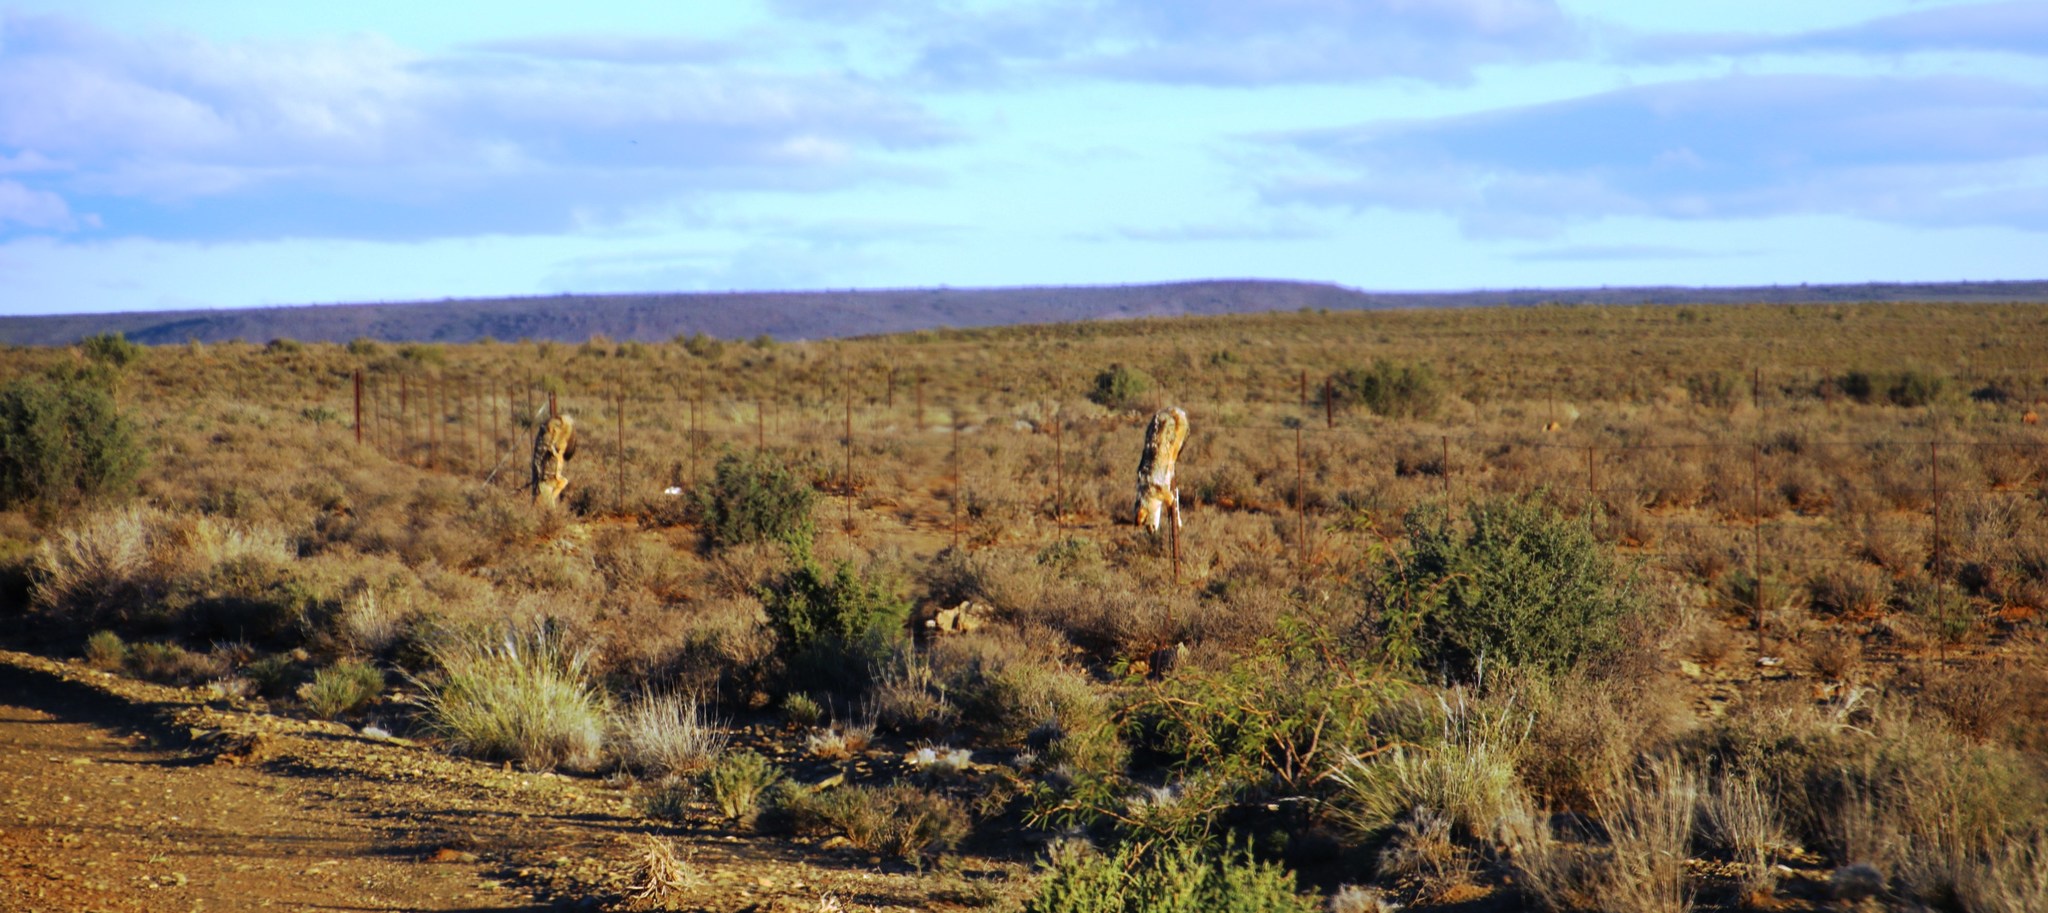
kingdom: Animalia
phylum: Chordata
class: Mammalia
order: Carnivora
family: Canidae
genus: Lupulella
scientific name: Lupulella
